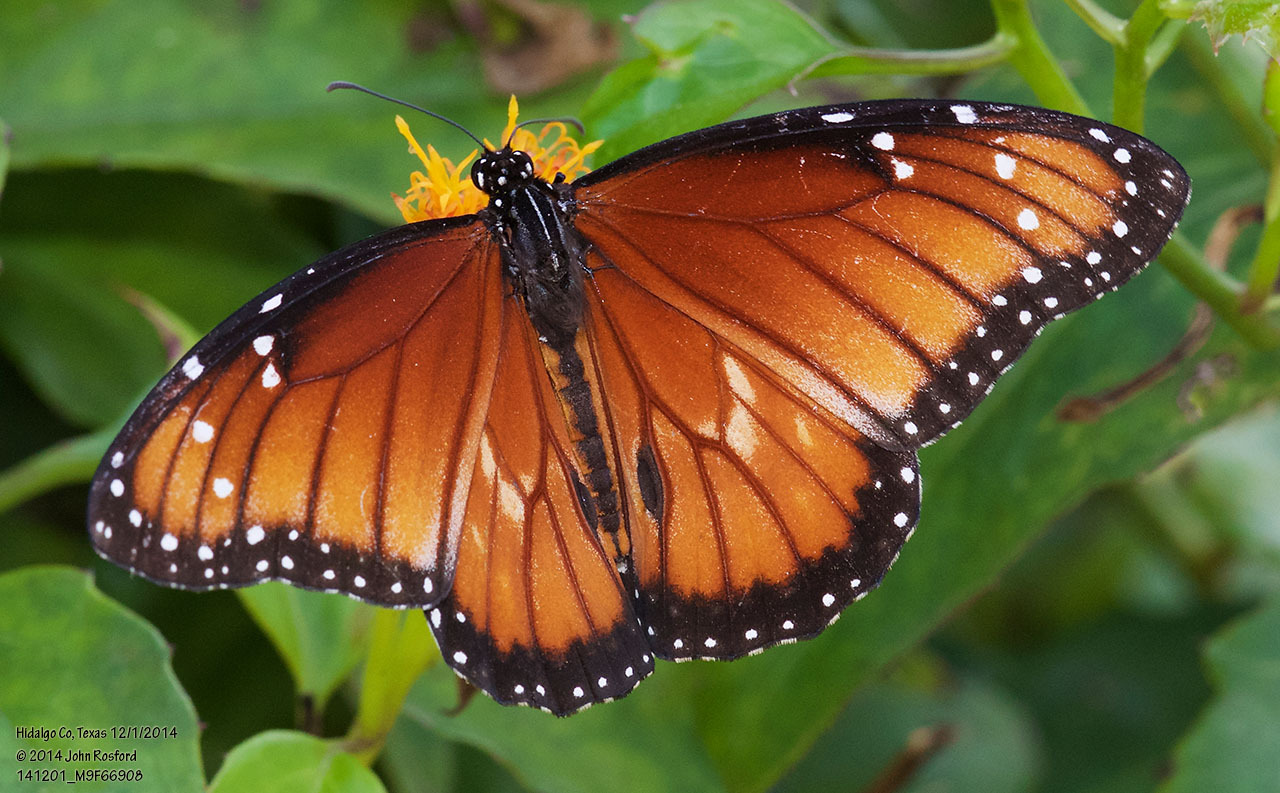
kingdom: Animalia
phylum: Arthropoda
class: Insecta
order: Lepidoptera
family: Nymphalidae
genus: Danaus
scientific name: Danaus eresimus
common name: Soldier
